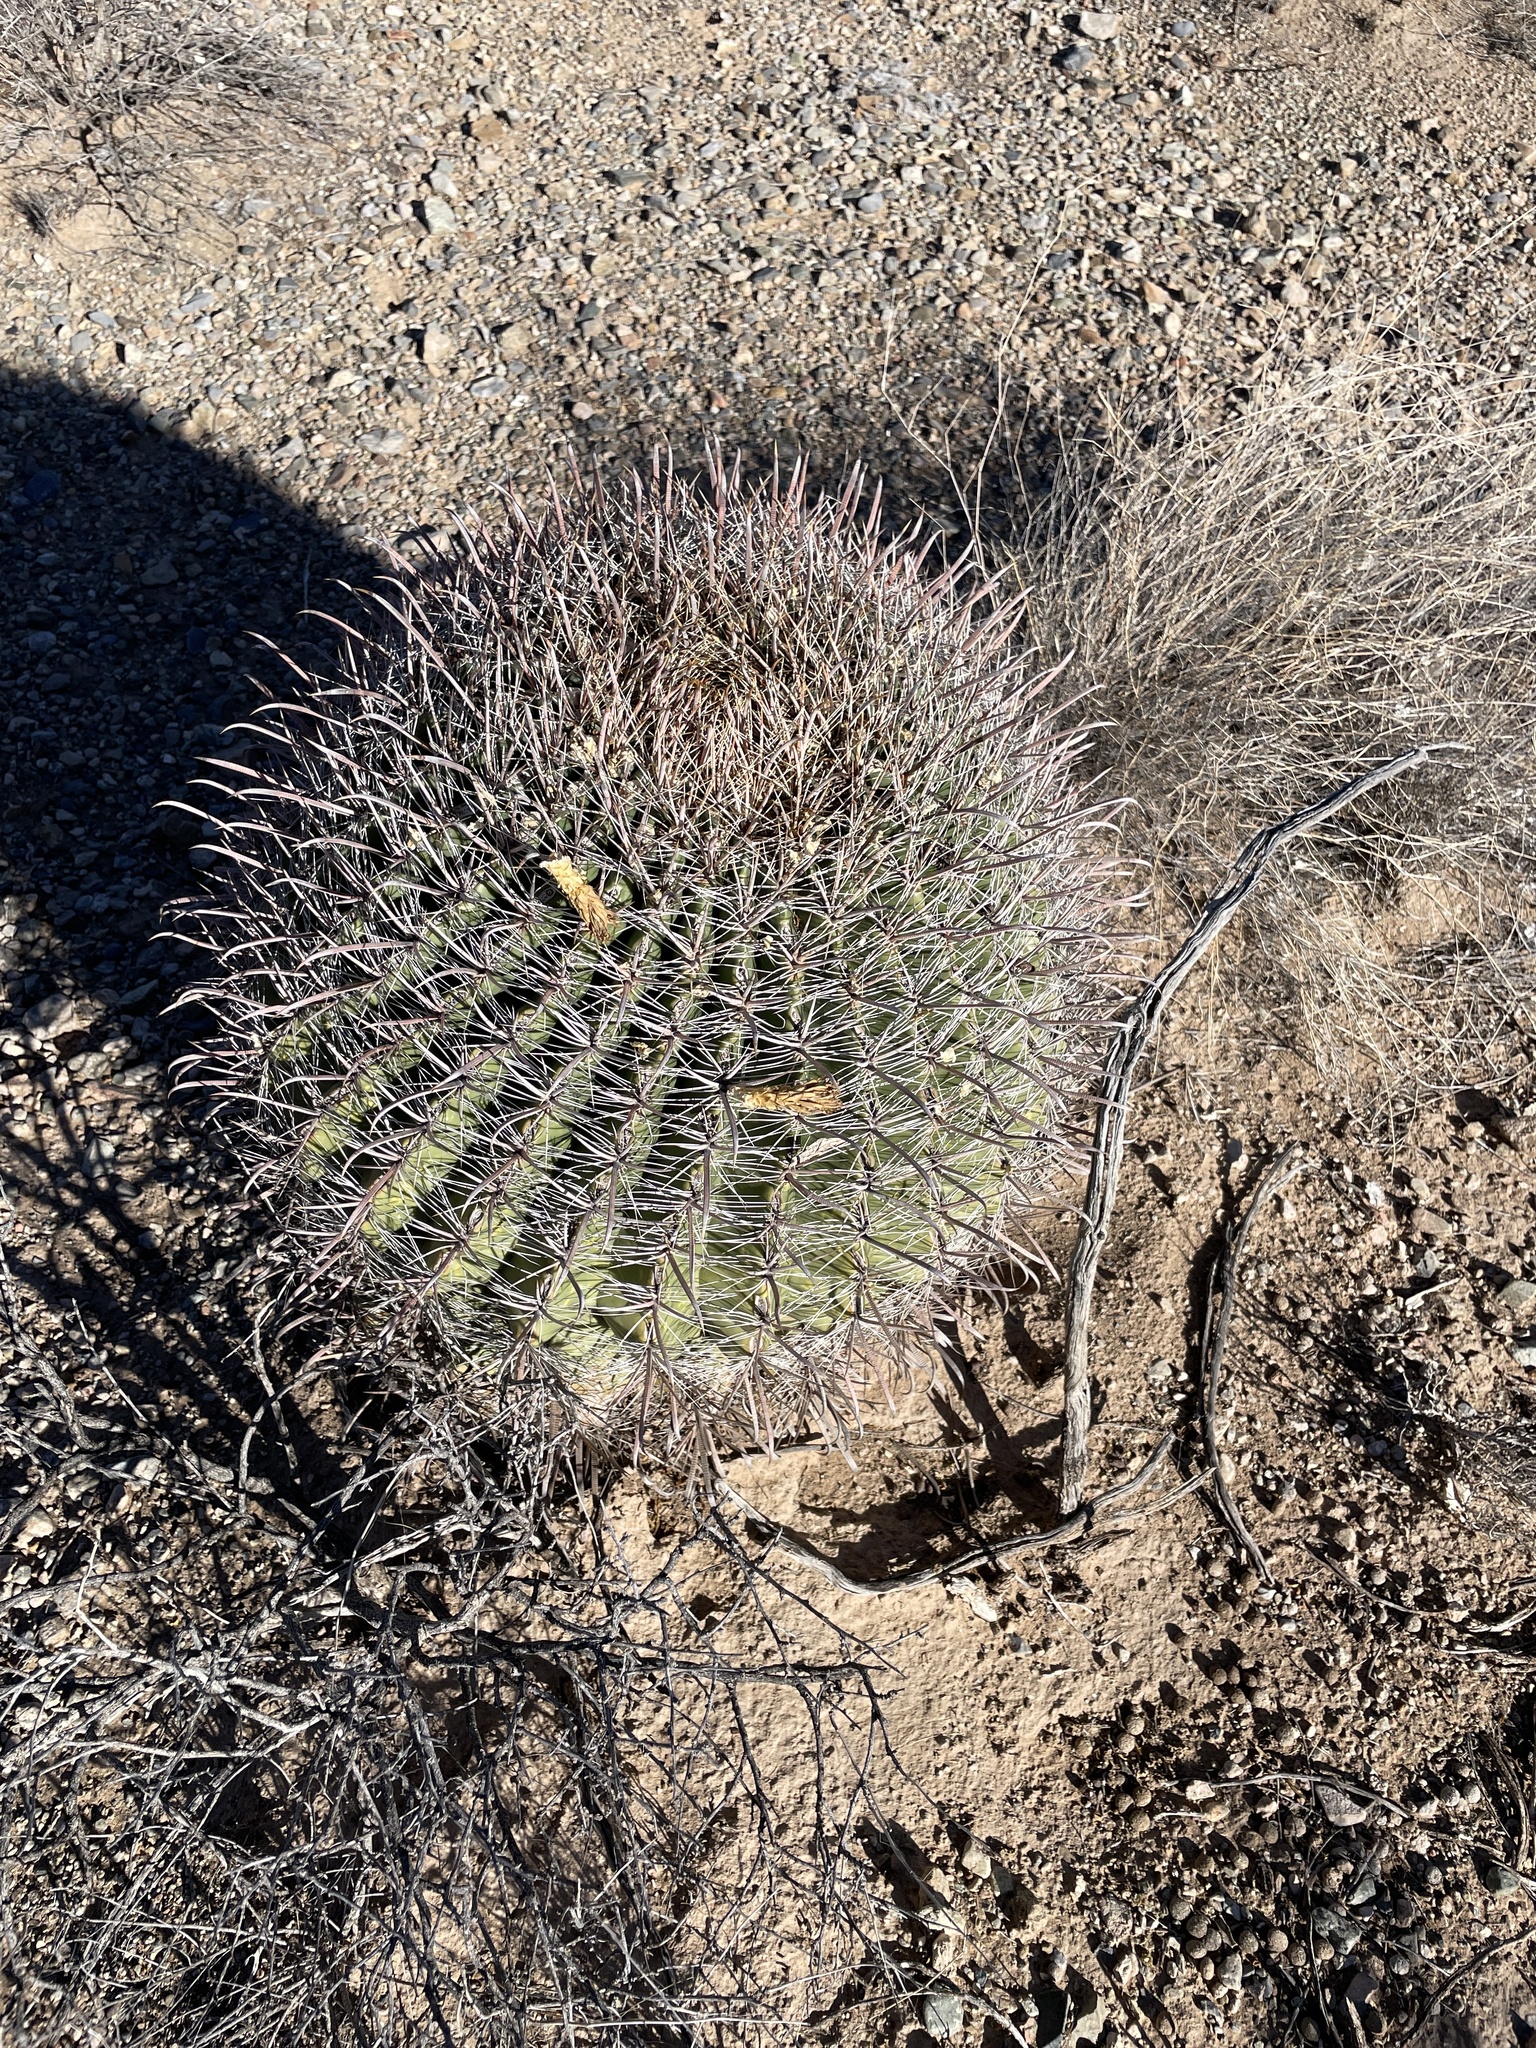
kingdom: Plantae
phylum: Tracheophyta
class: Magnoliopsida
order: Caryophyllales
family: Cactaceae
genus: Ferocactus
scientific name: Ferocactus wislizeni
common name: Candy barrel cactus
